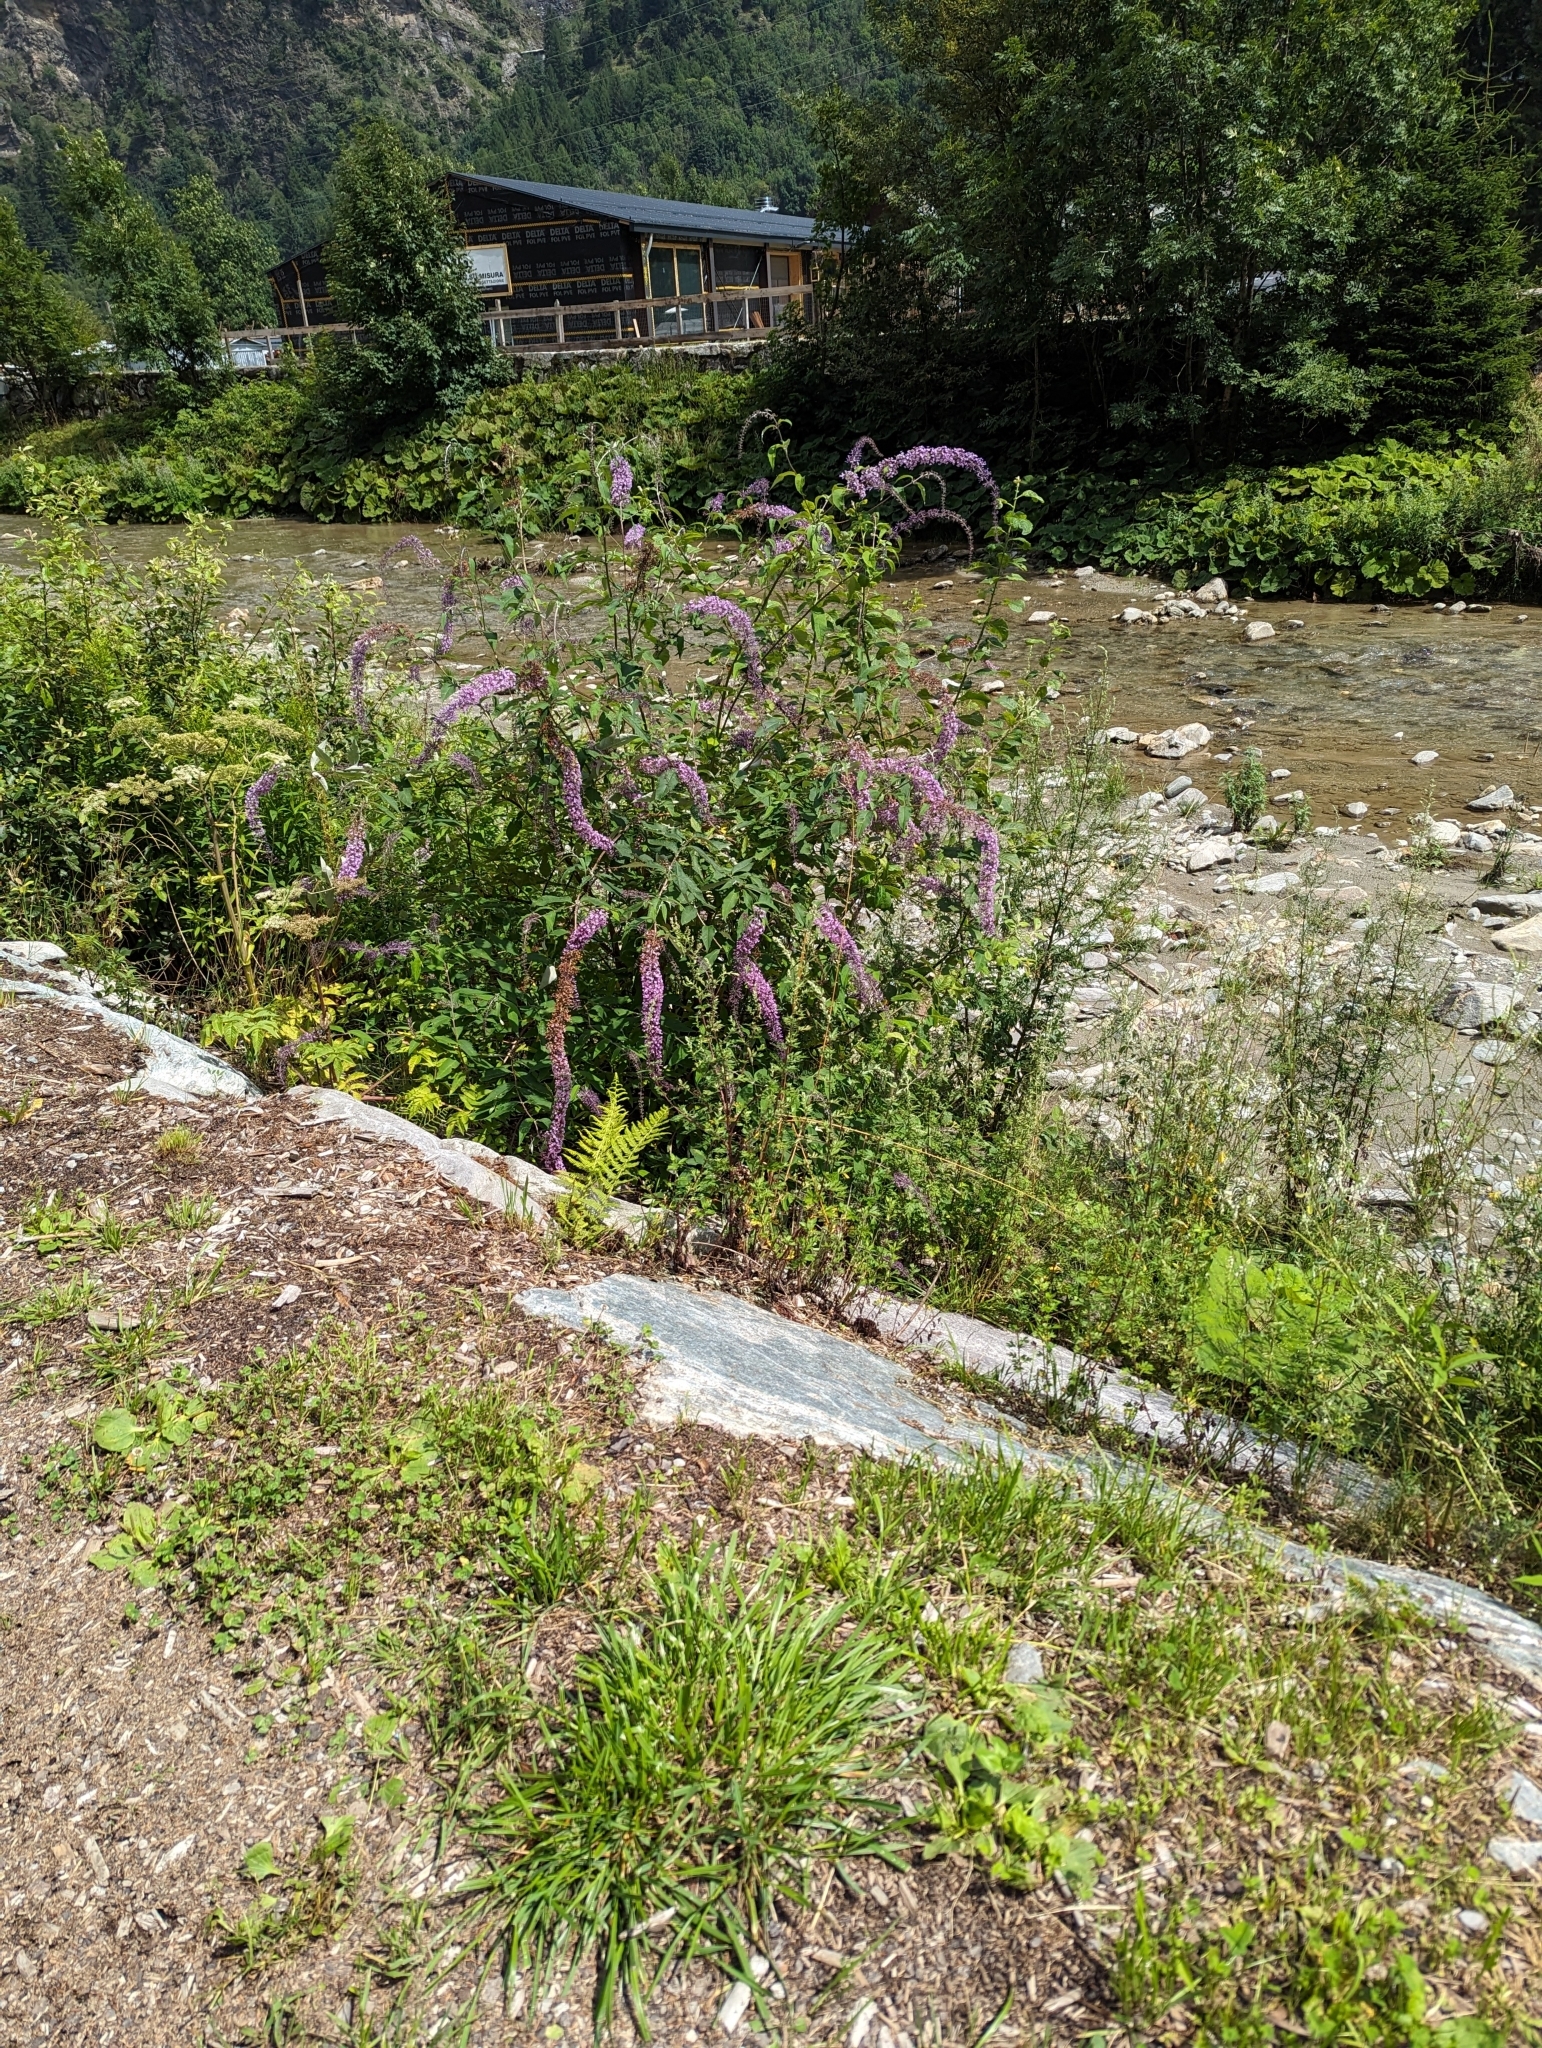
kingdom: Plantae
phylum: Tracheophyta
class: Magnoliopsida
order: Lamiales
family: Scrophulariaceae
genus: Buddleja
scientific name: Buddleja davidii
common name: Butterfly-bush
